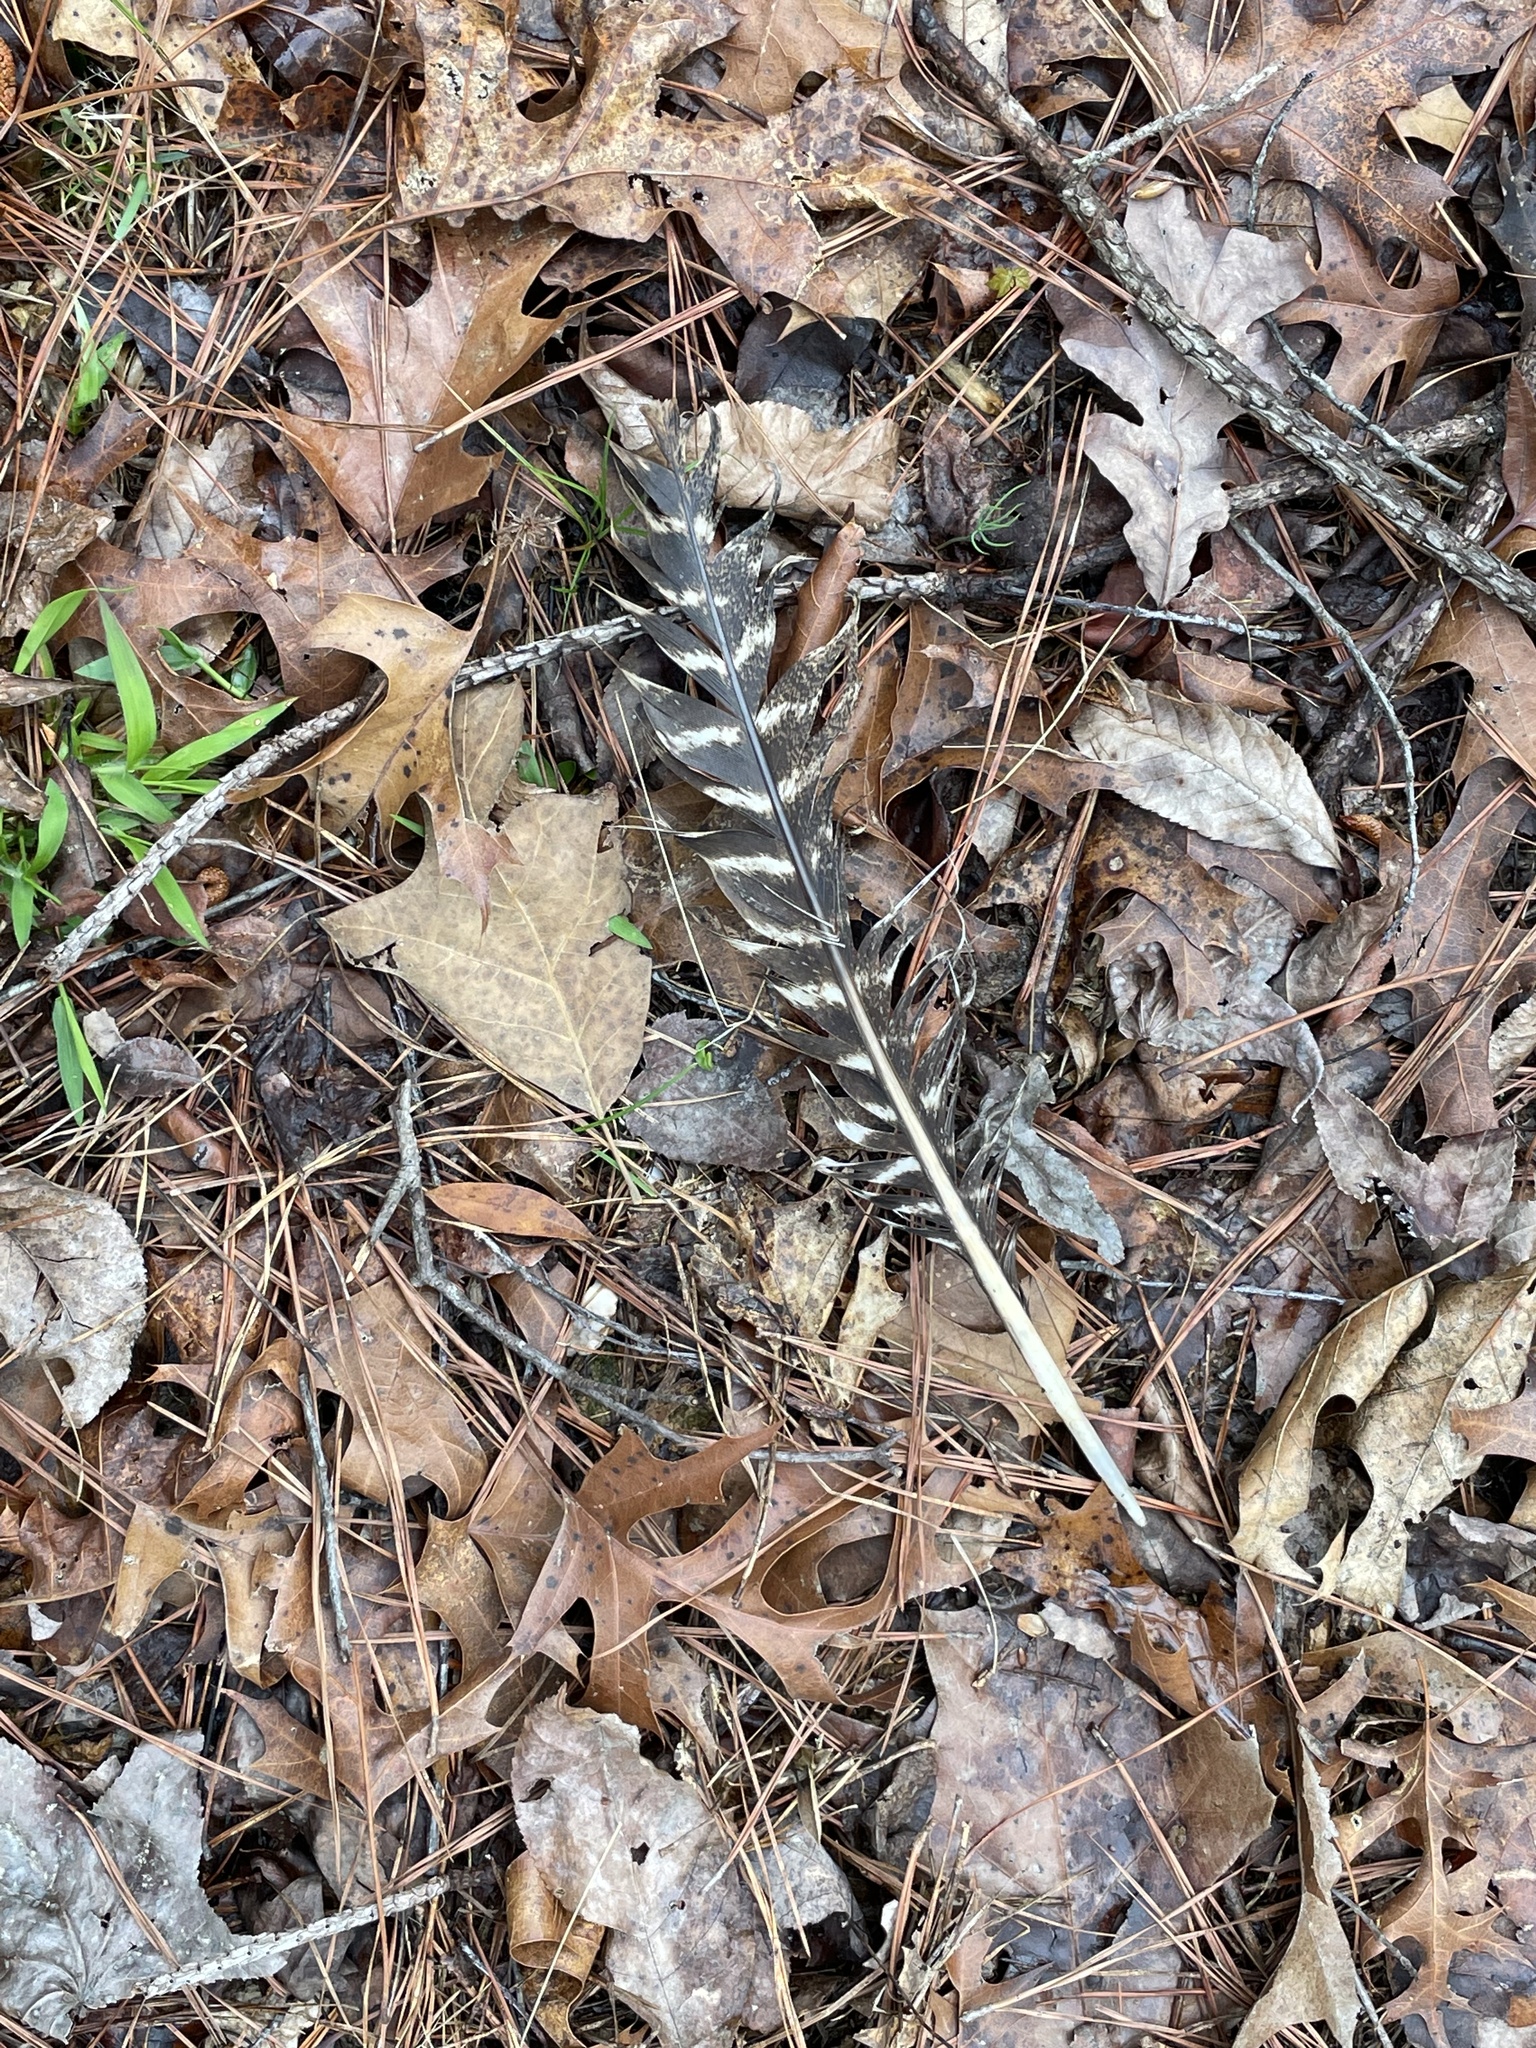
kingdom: Animalia
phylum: Chordata
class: Aves
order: Galliformes
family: Phasianidae
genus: Meleagris
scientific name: Meleagris gallopavo
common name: Wild turkey
